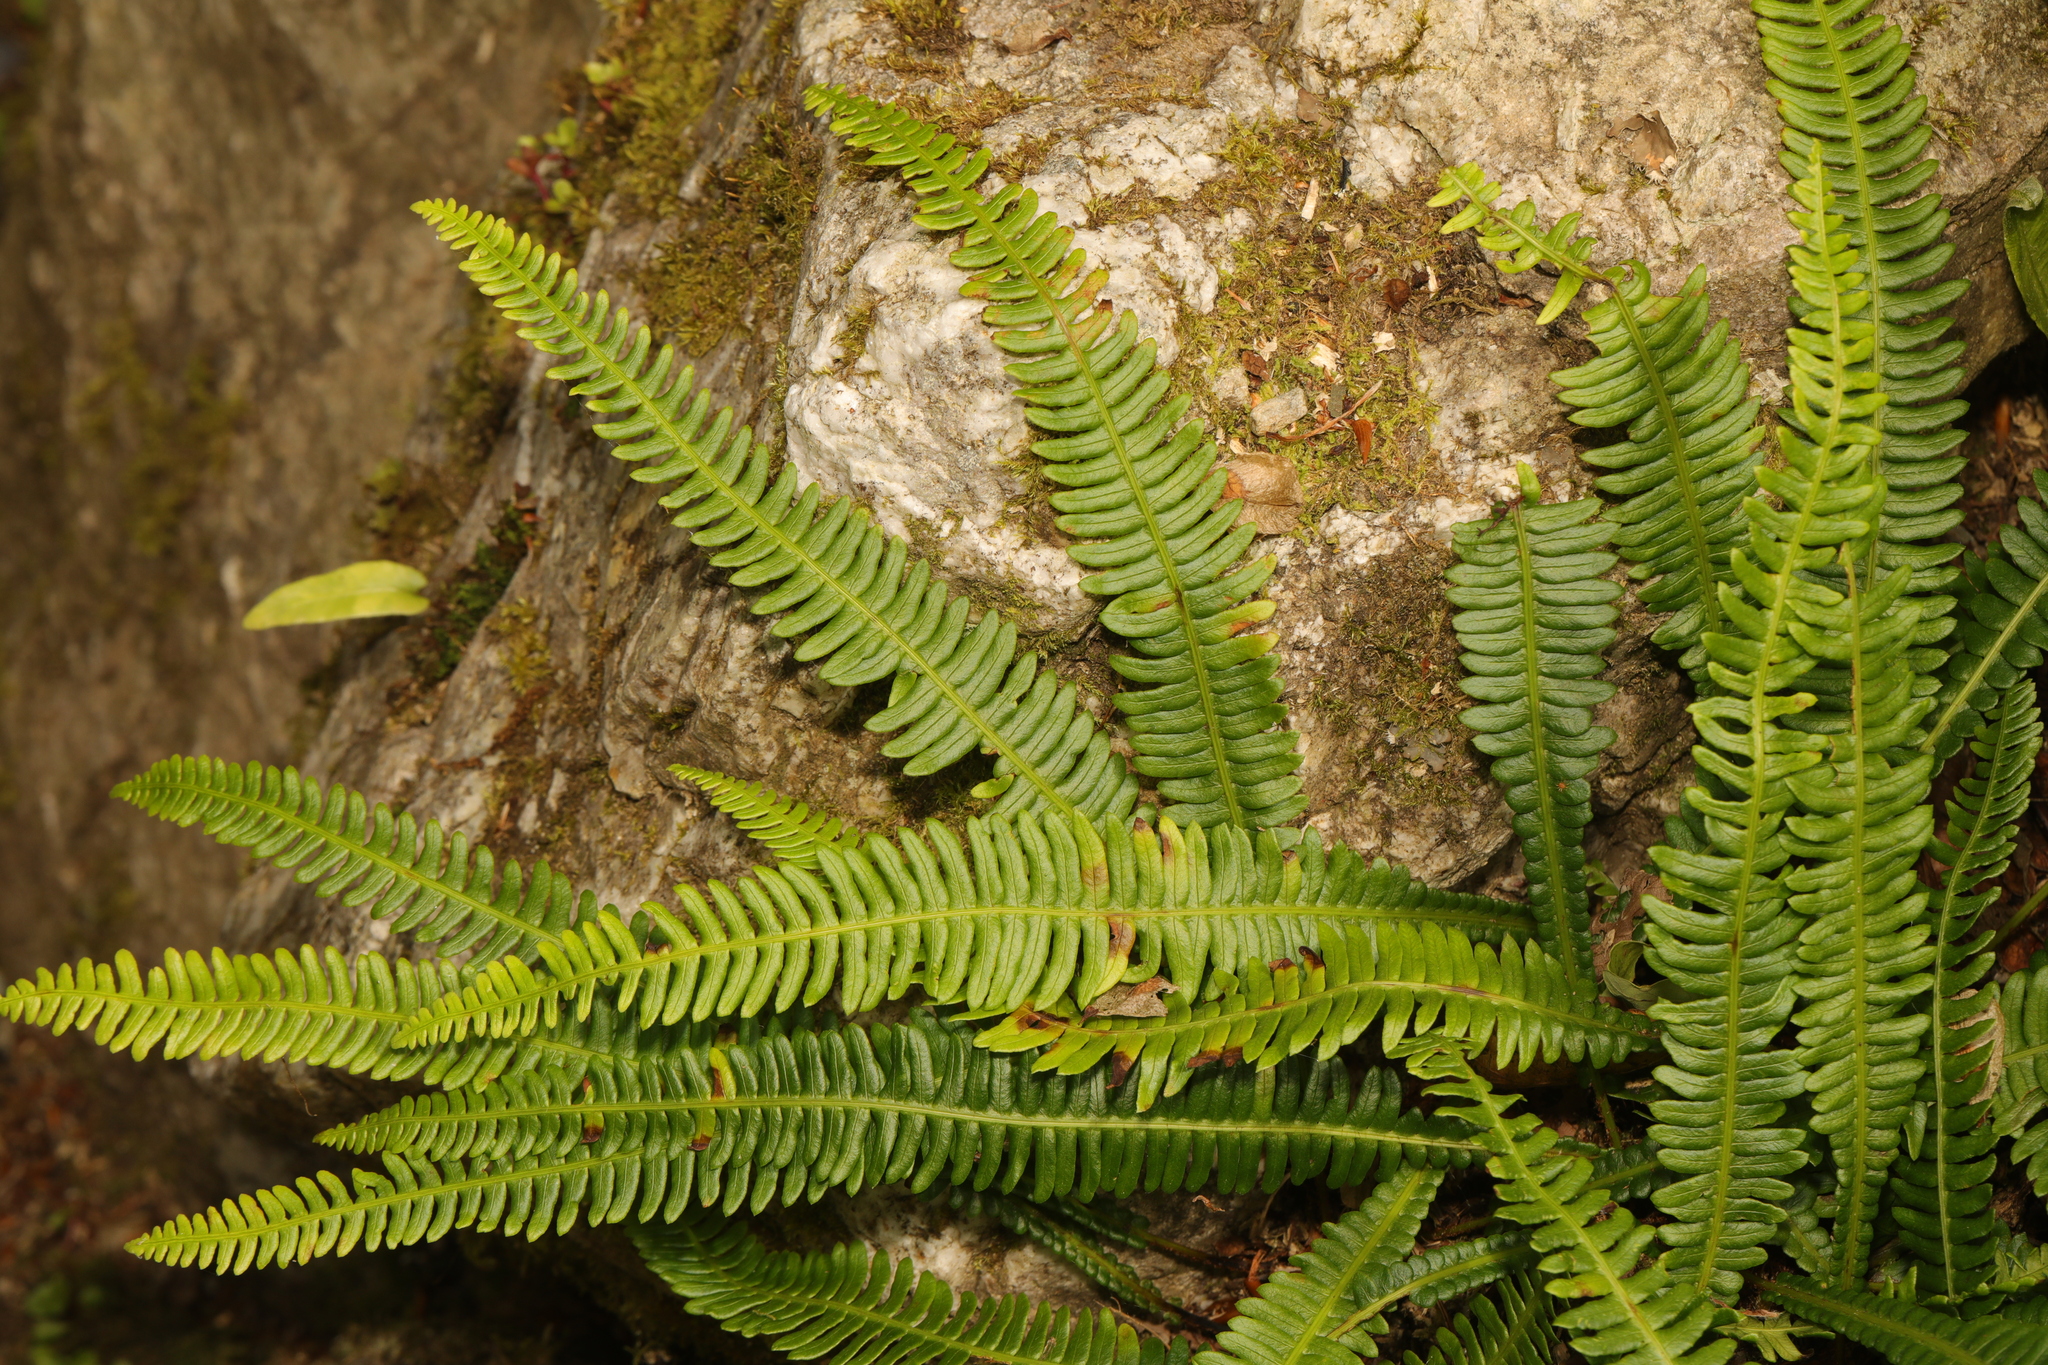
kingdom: Plantae
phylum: Tracheophyta
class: Polypodiopsida
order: Polypodiales
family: Blechnaceae
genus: Struthiopteris
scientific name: Struthiopteris spicant
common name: Deer fern
